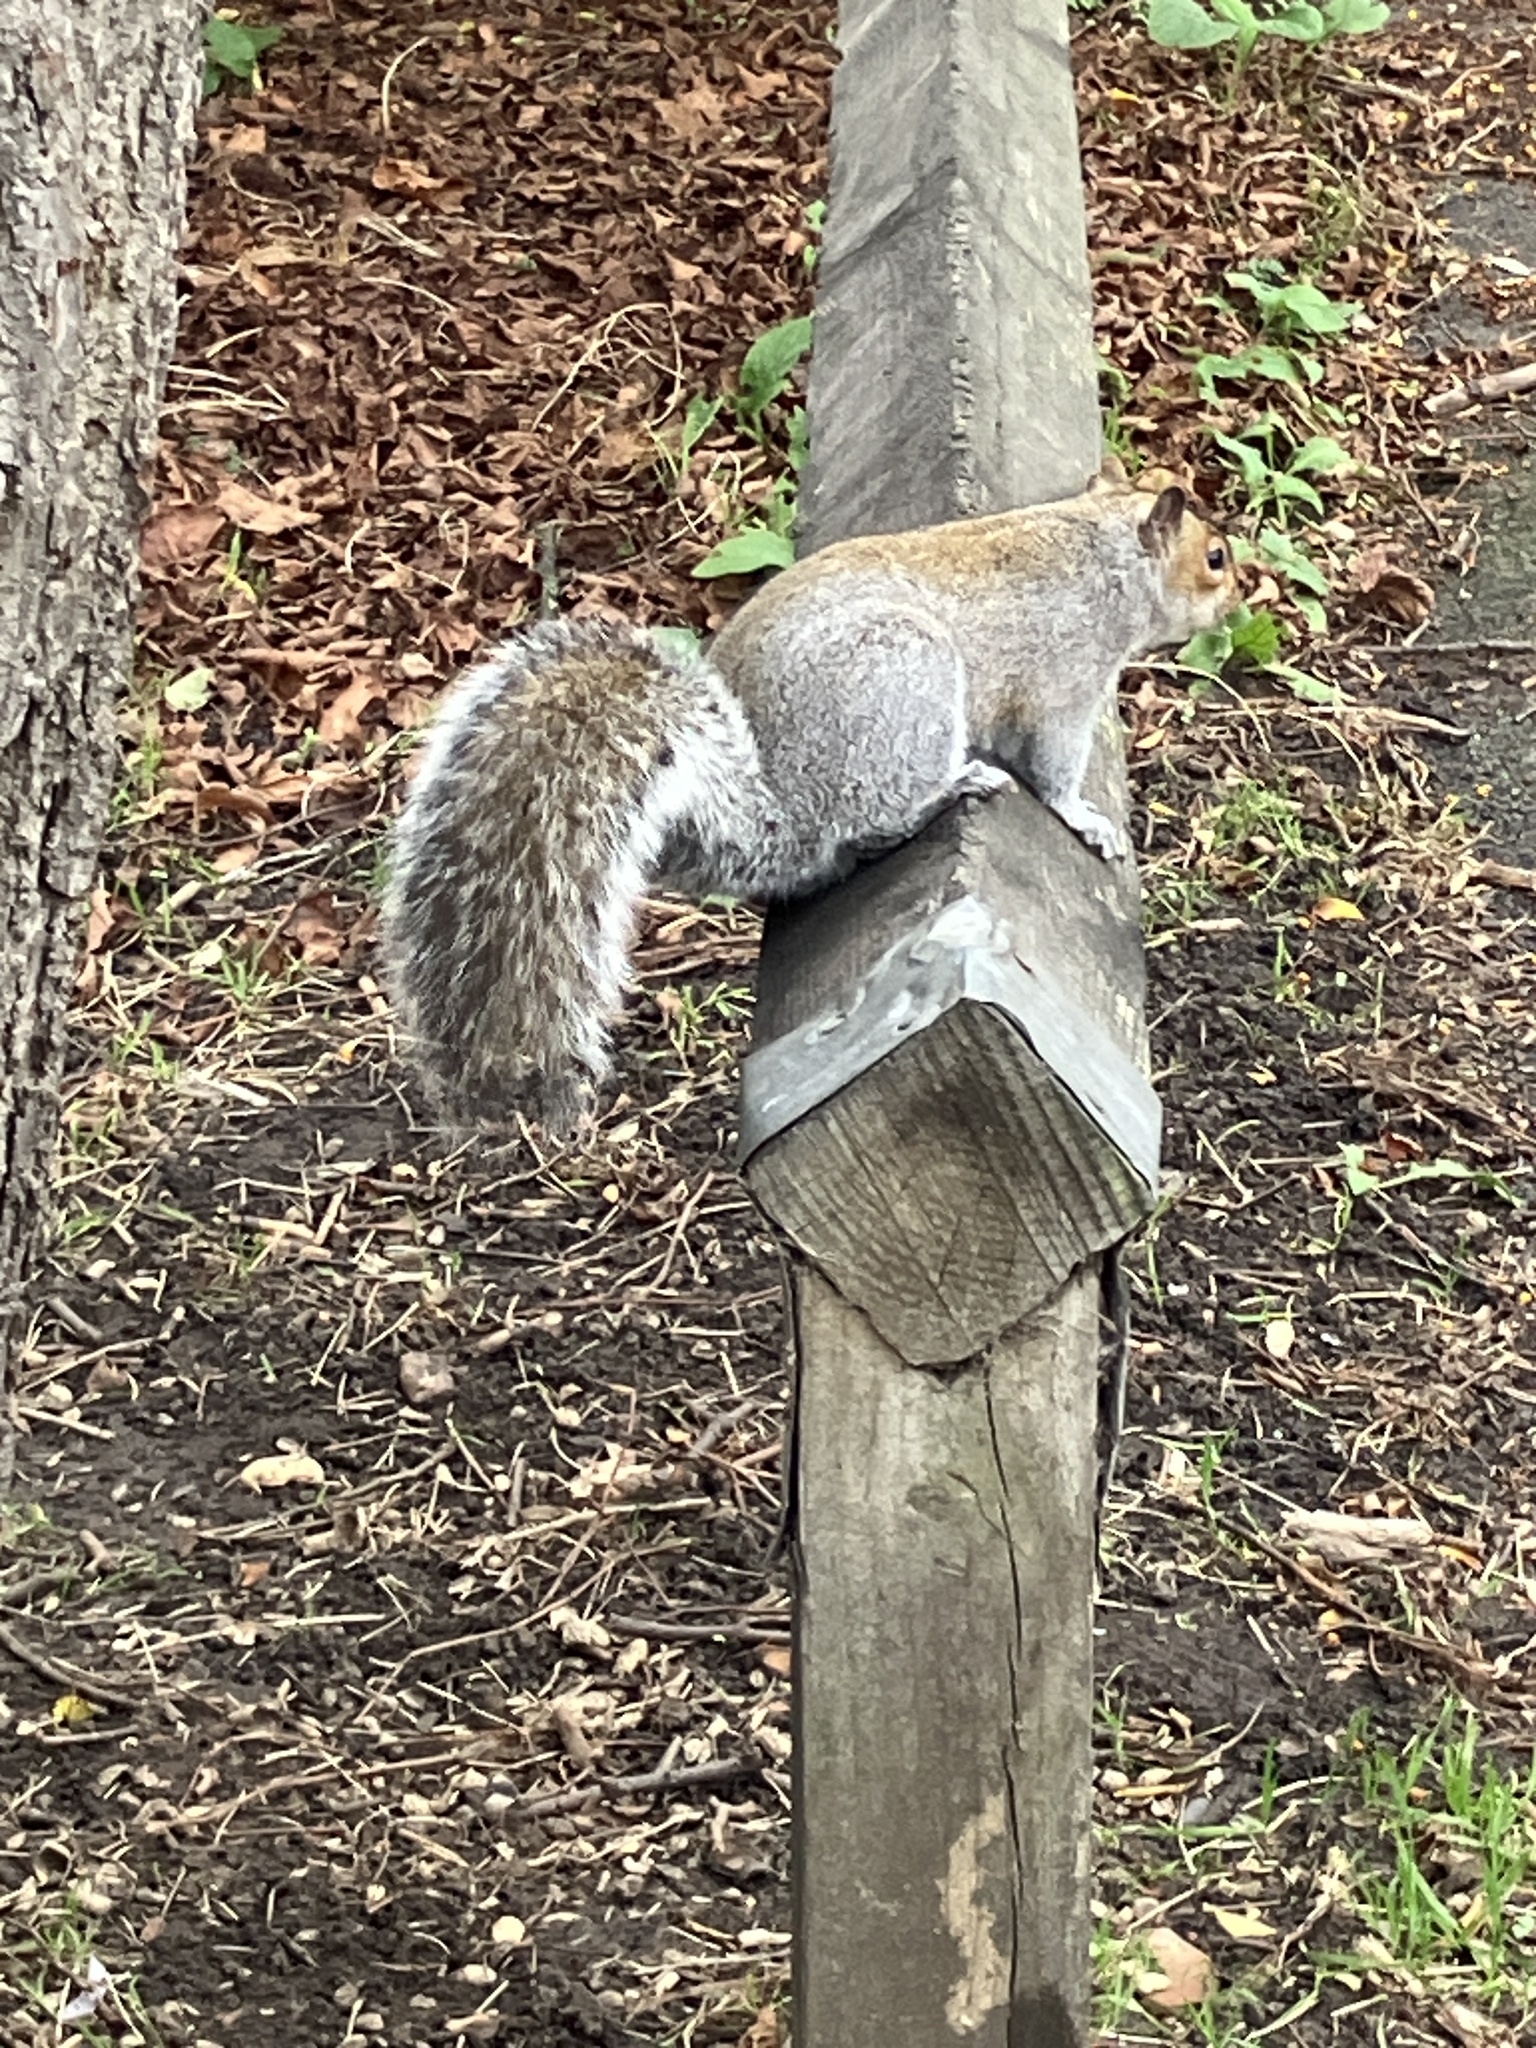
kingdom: Animalia
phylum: Chordata
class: Mammalia
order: Rodentia
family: Sciuridae
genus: Sciurus
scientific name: Sciurus carolinensis
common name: Eastern gray squirrel
